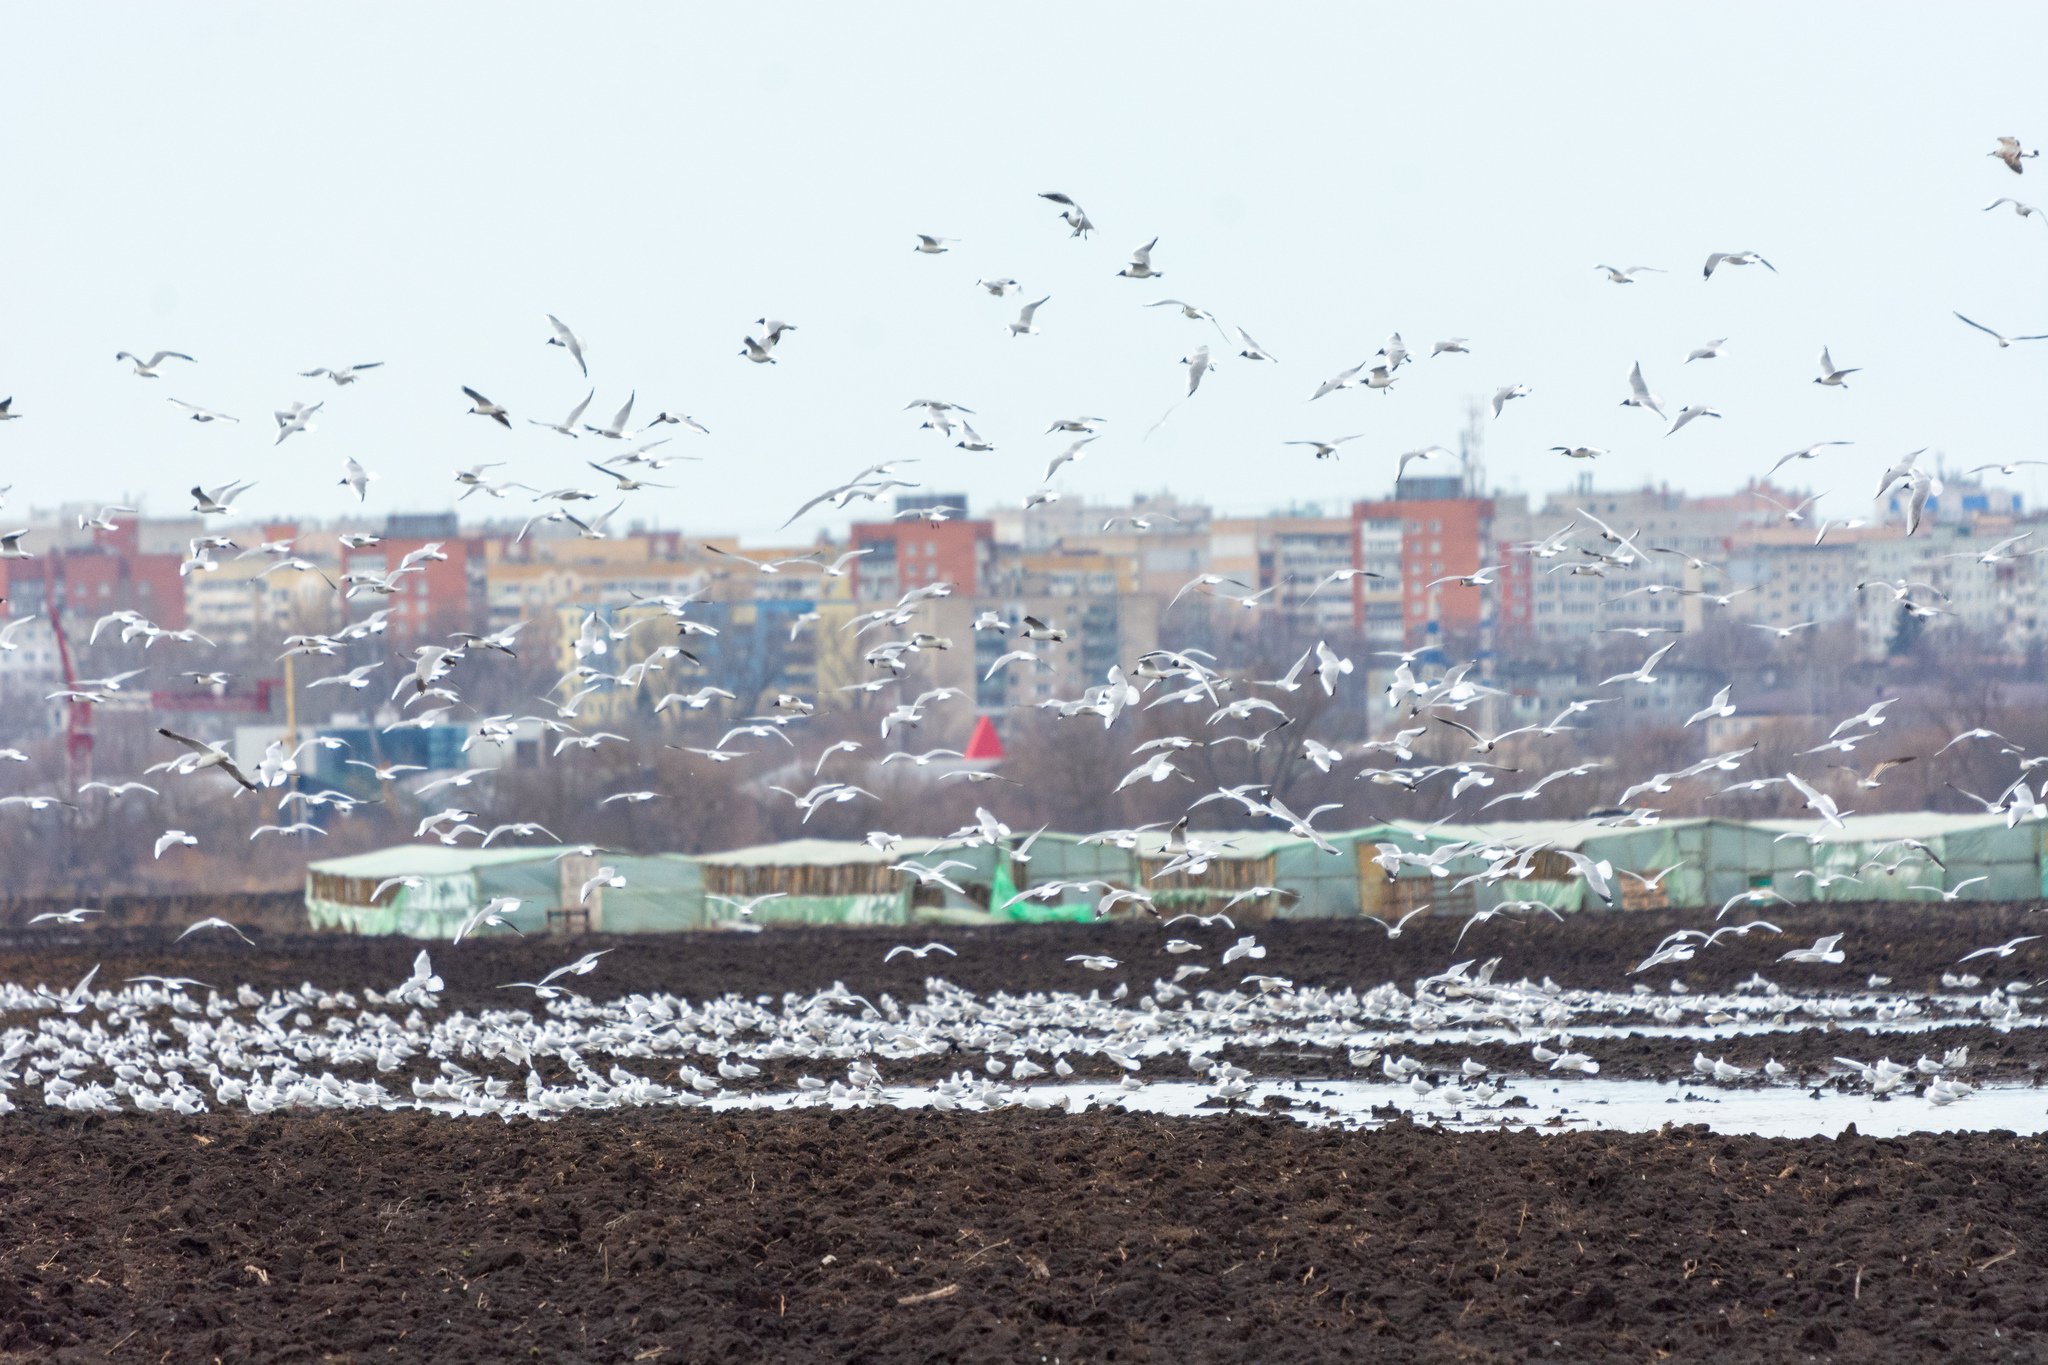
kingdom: Animalia
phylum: Chordata
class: Aves
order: Charadriiformes
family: Laridae
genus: Chroicocephalus
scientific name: Chroicocephalus ridibundus
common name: Black-headed gull
